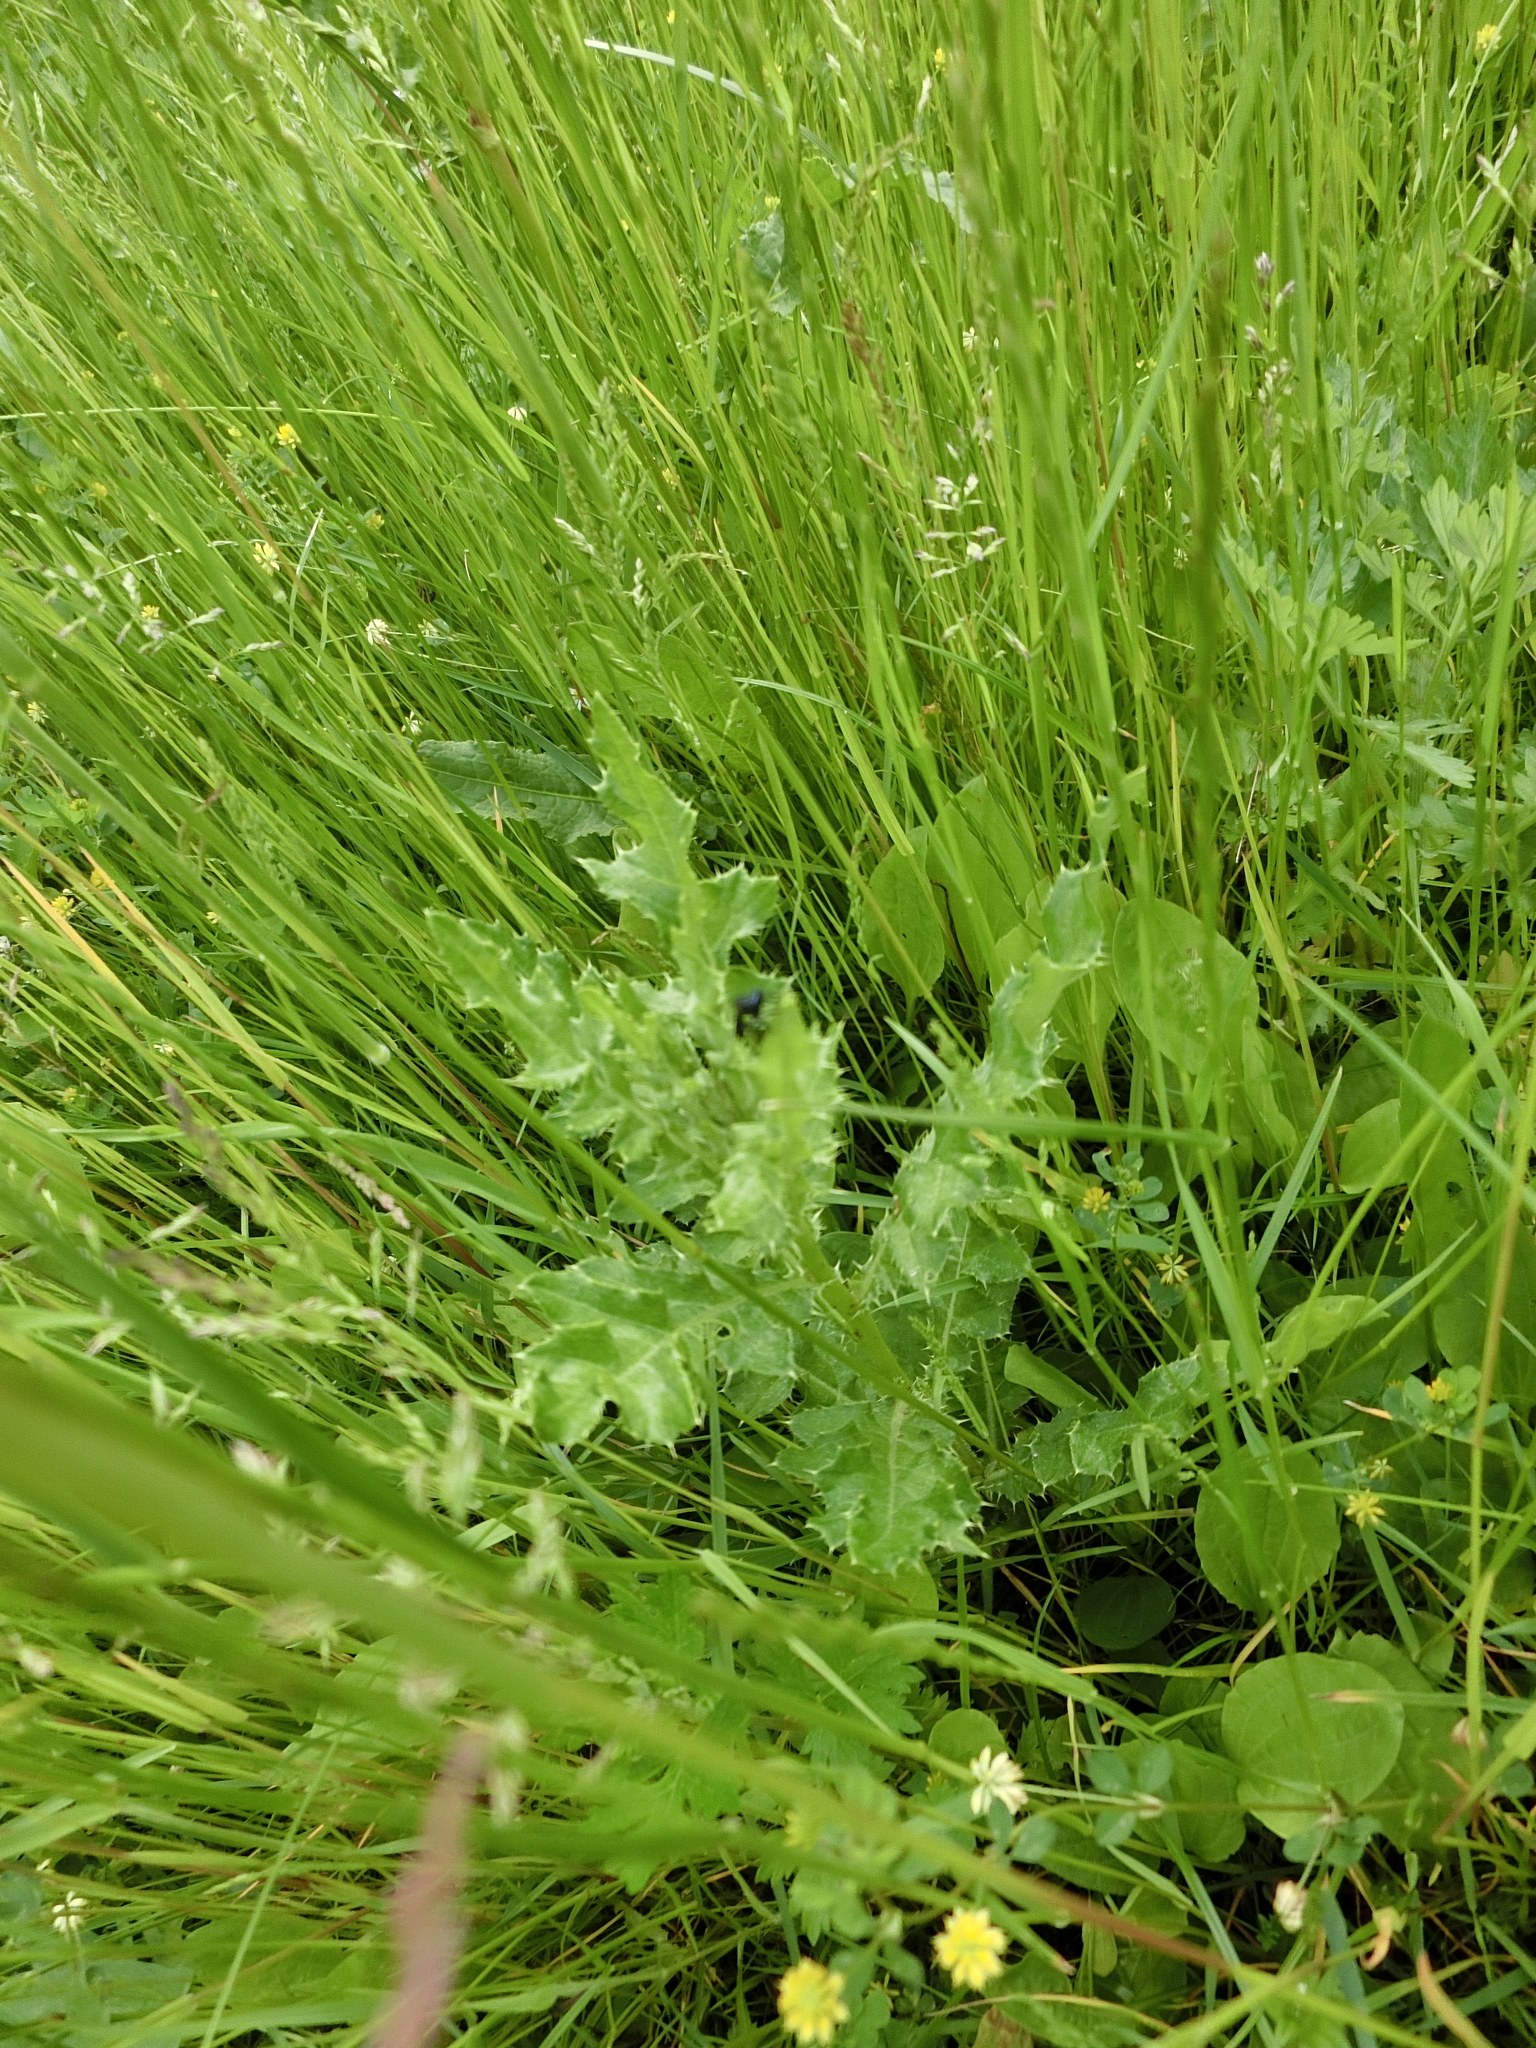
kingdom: Plantae
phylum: Tracheophyta
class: Magnoliopsida
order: Asterales
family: Asteraceae
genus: Cirsium
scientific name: Cirsium arvense
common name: Creeping thistle
